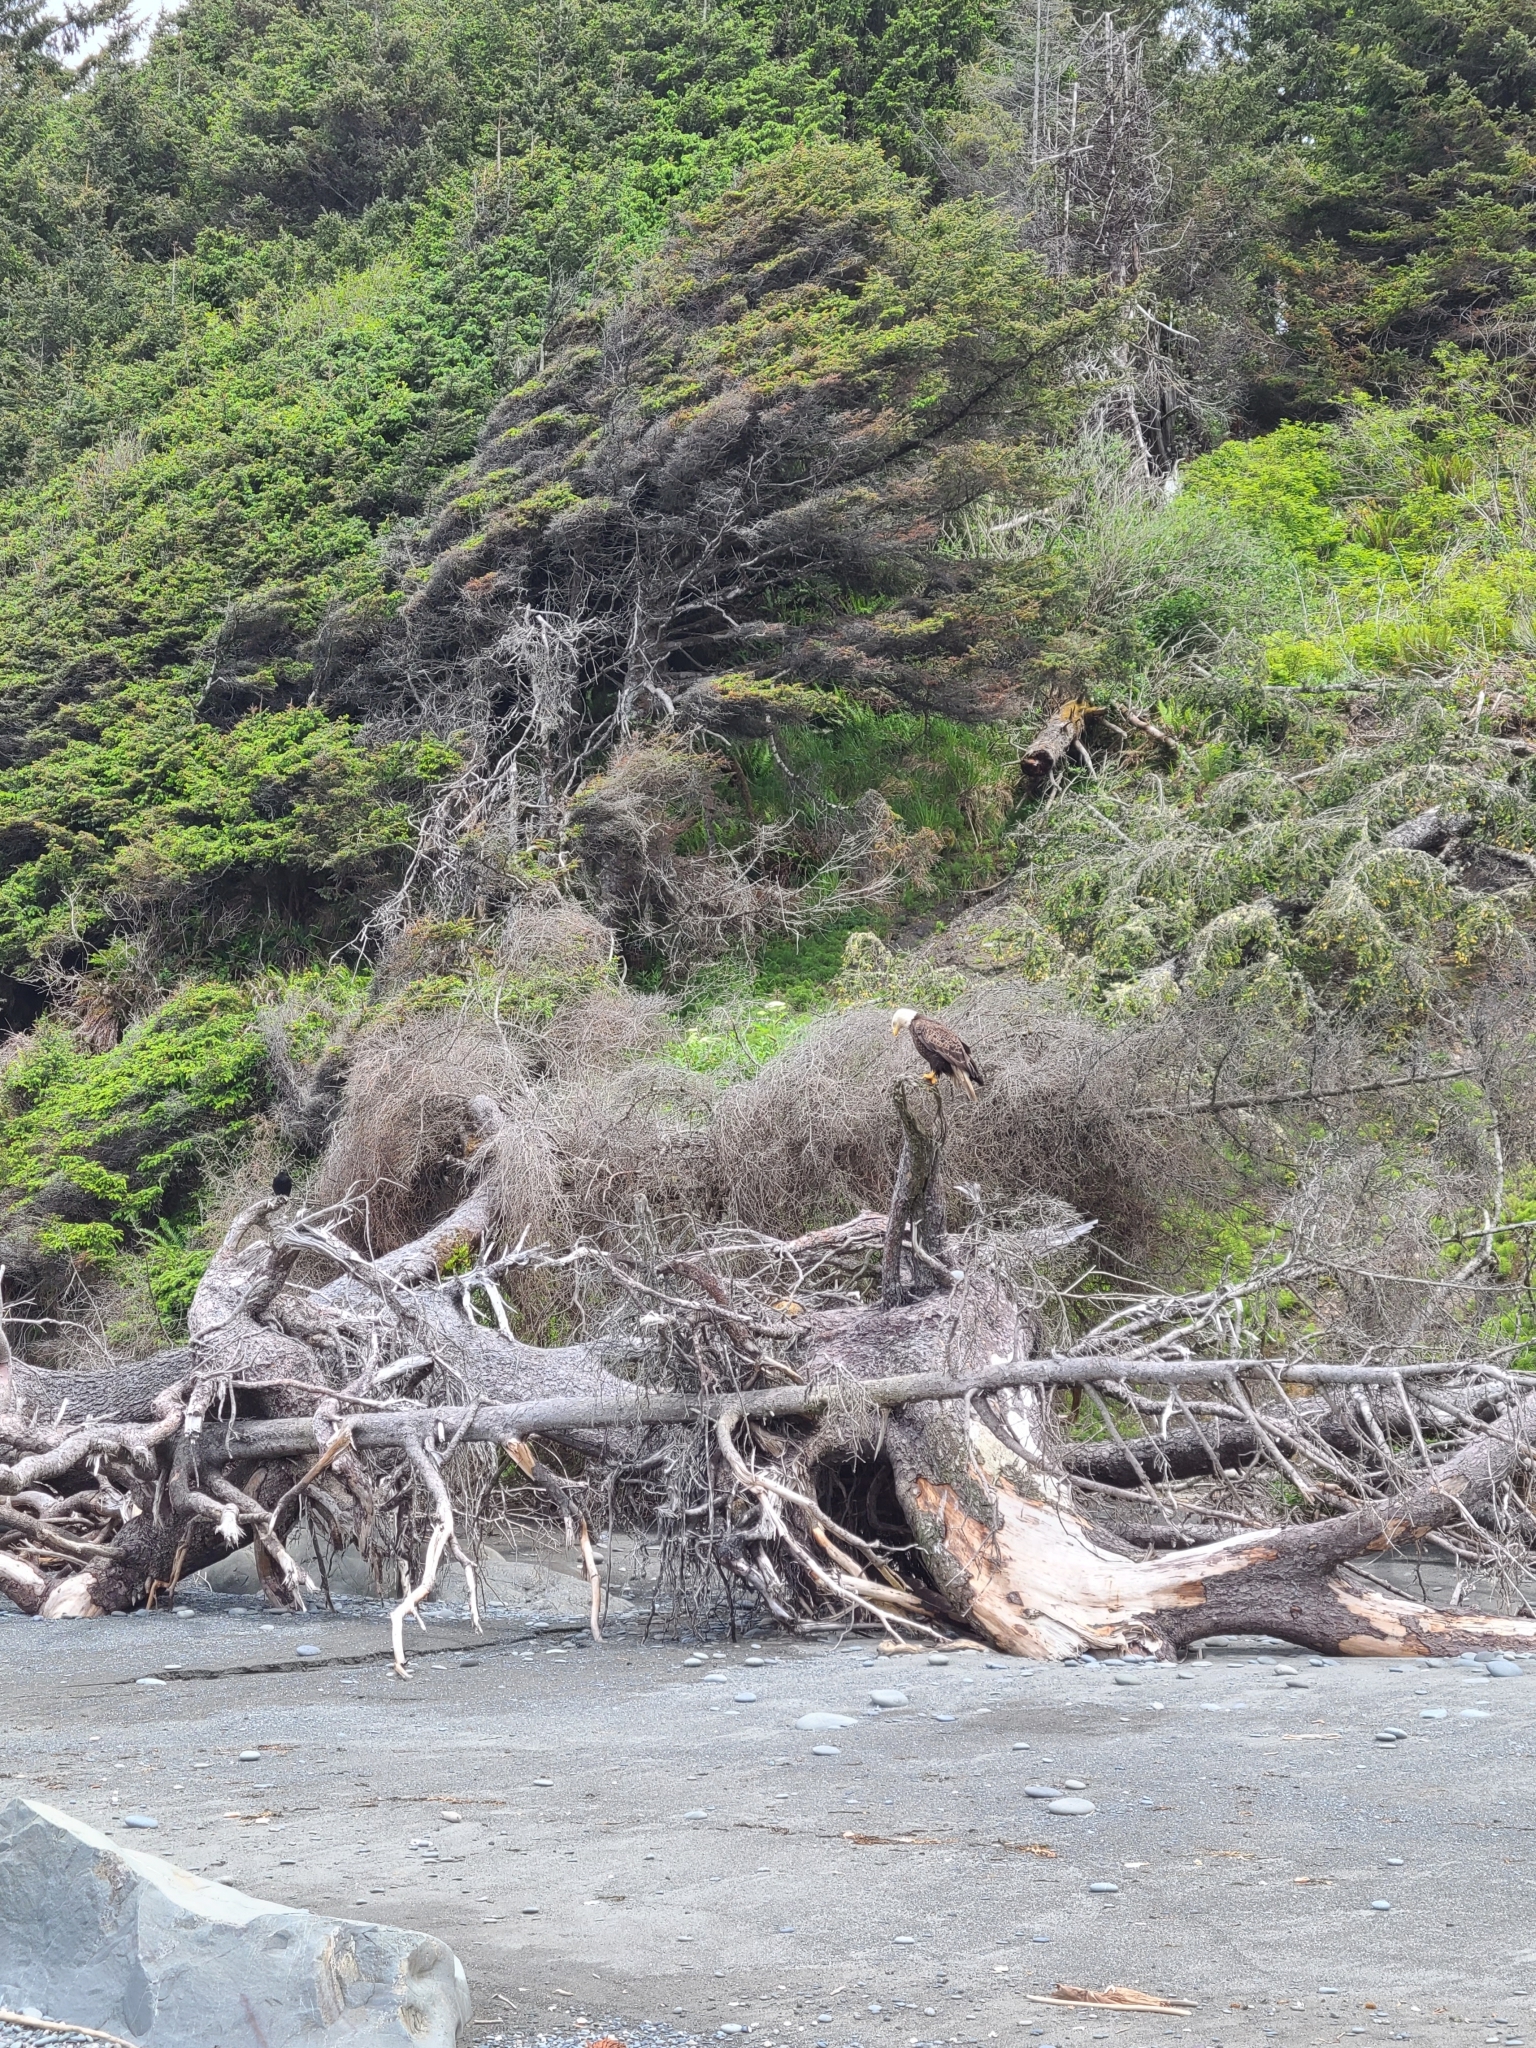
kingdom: Animalia
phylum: Chordata
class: Aves
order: Accipitriformes
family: Accipitridae
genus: Haliaeetus
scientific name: Haliaeetus leucocephalus
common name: Bald eagle
